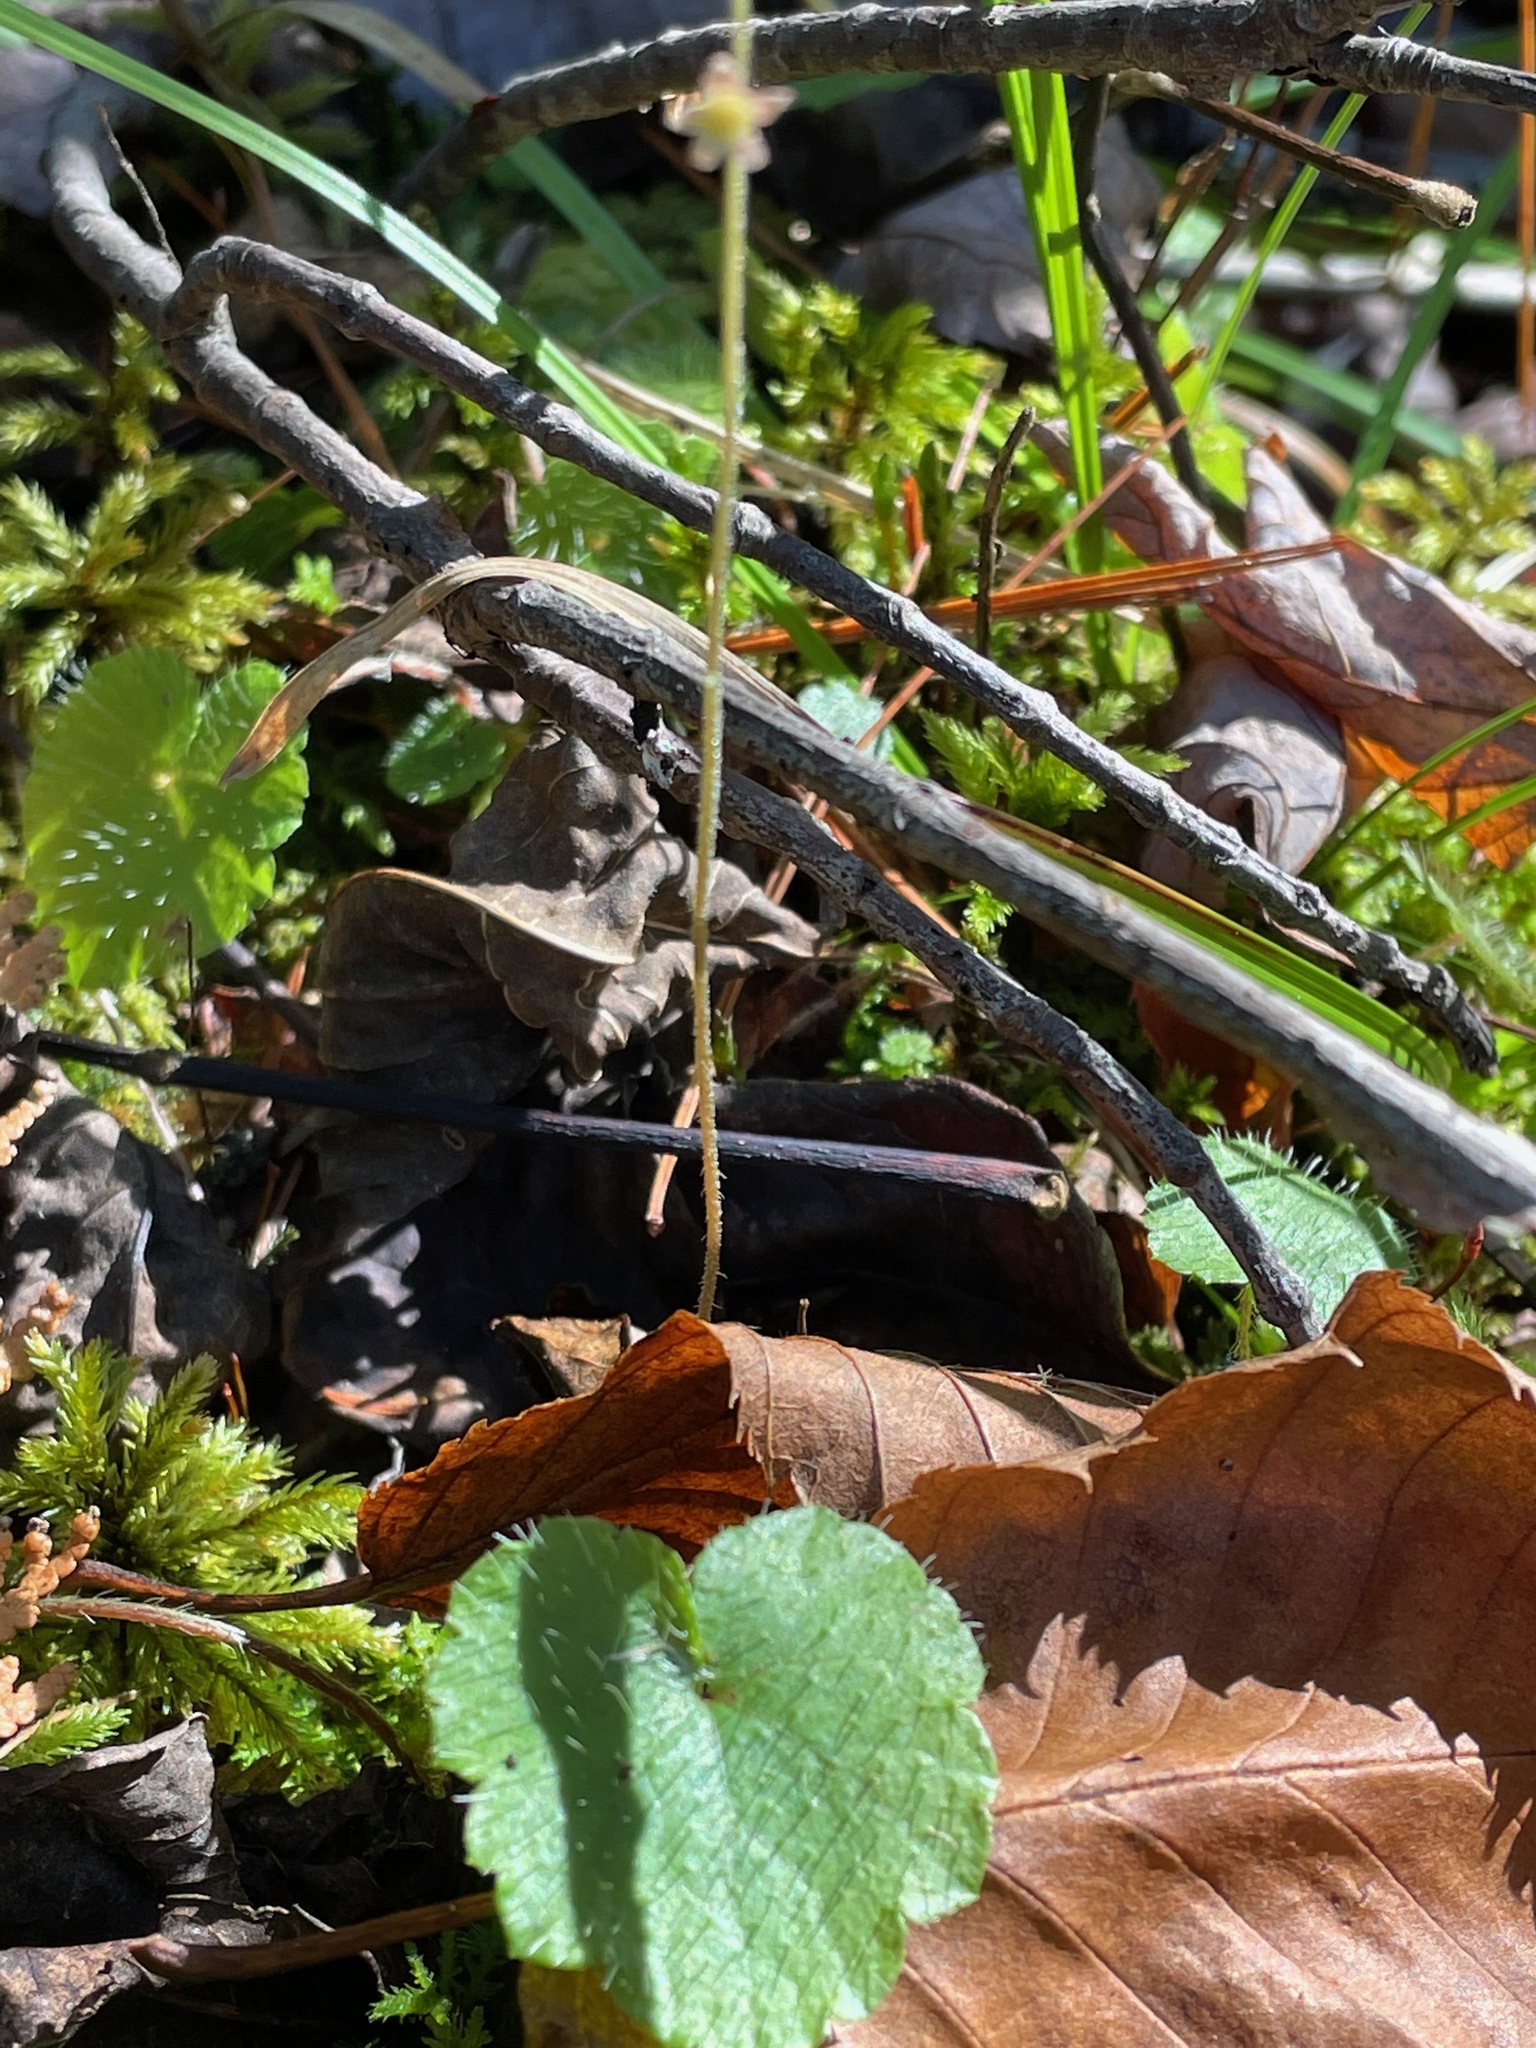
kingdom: Plantae
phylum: Tracheophyta
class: Magnoliopsida
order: Saxifragales
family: Saxifragaceae
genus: Mitella
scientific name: Mitella nuda
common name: Bare-stemmed bishop's-cap
